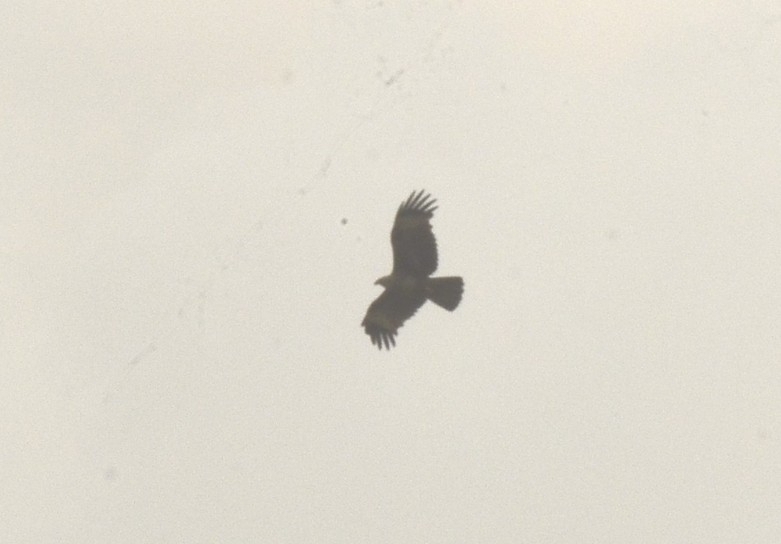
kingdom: Animalia
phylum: Chordata
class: Aves
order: Accipitriformes
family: Accipitridae
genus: Haliastur
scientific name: Haliastur indus
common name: Brahminy kite
